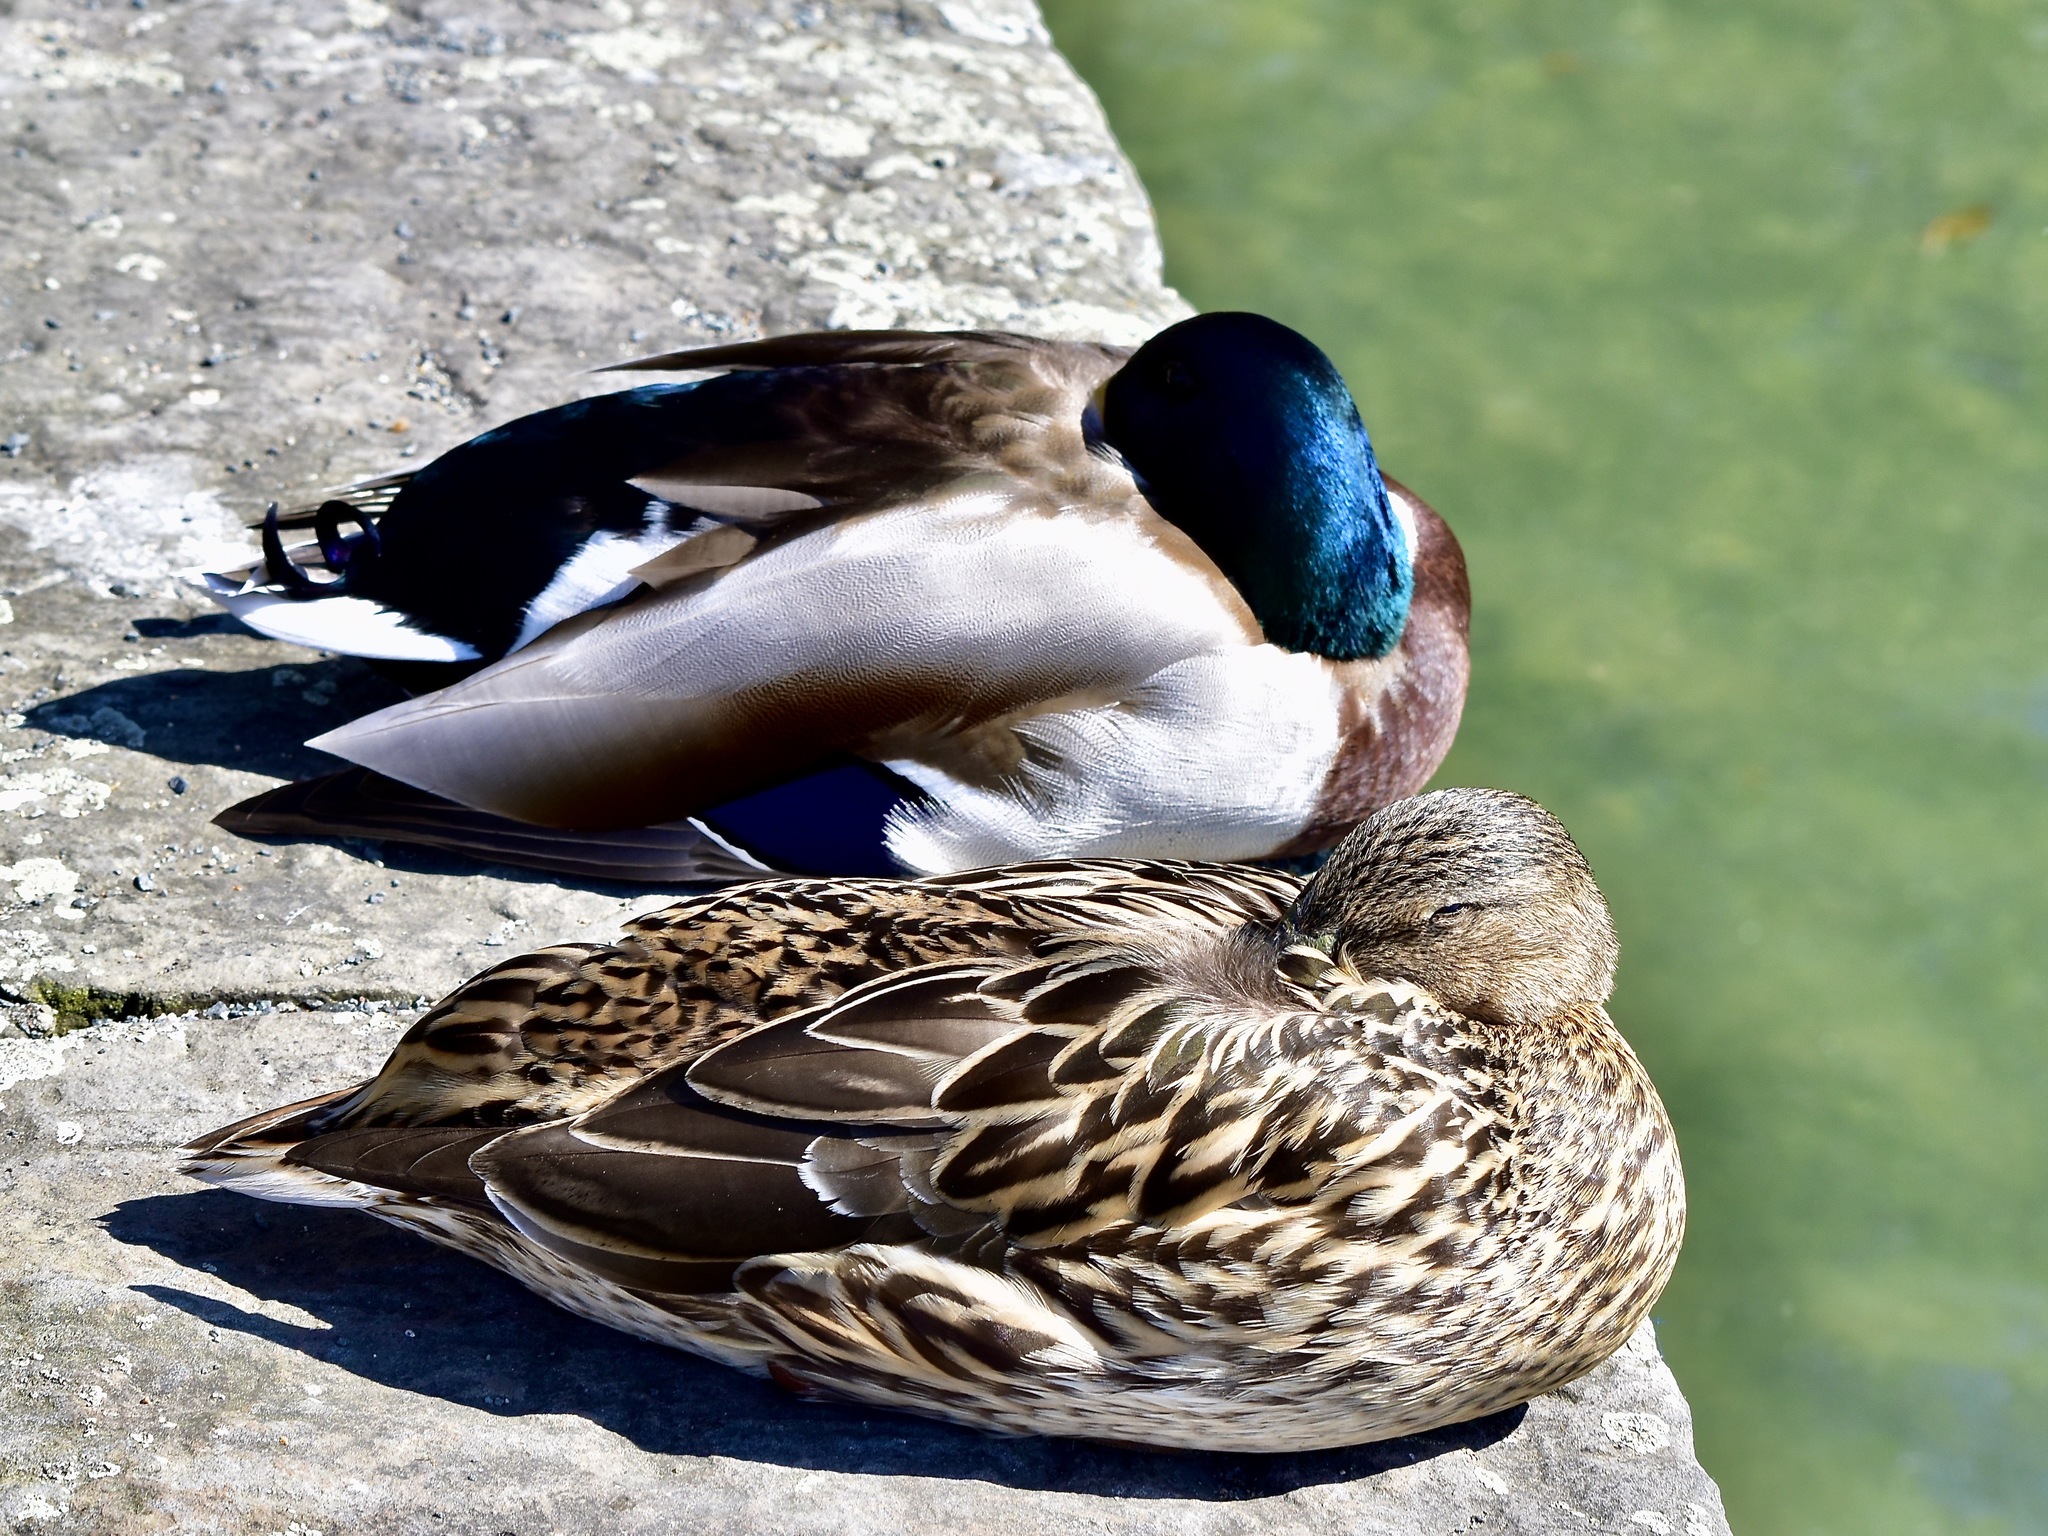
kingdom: Animalia
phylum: Chordata
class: Aves
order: Anseriformes
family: Anatidae
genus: Anas
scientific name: Anas platyrhynchos
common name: Mallard
